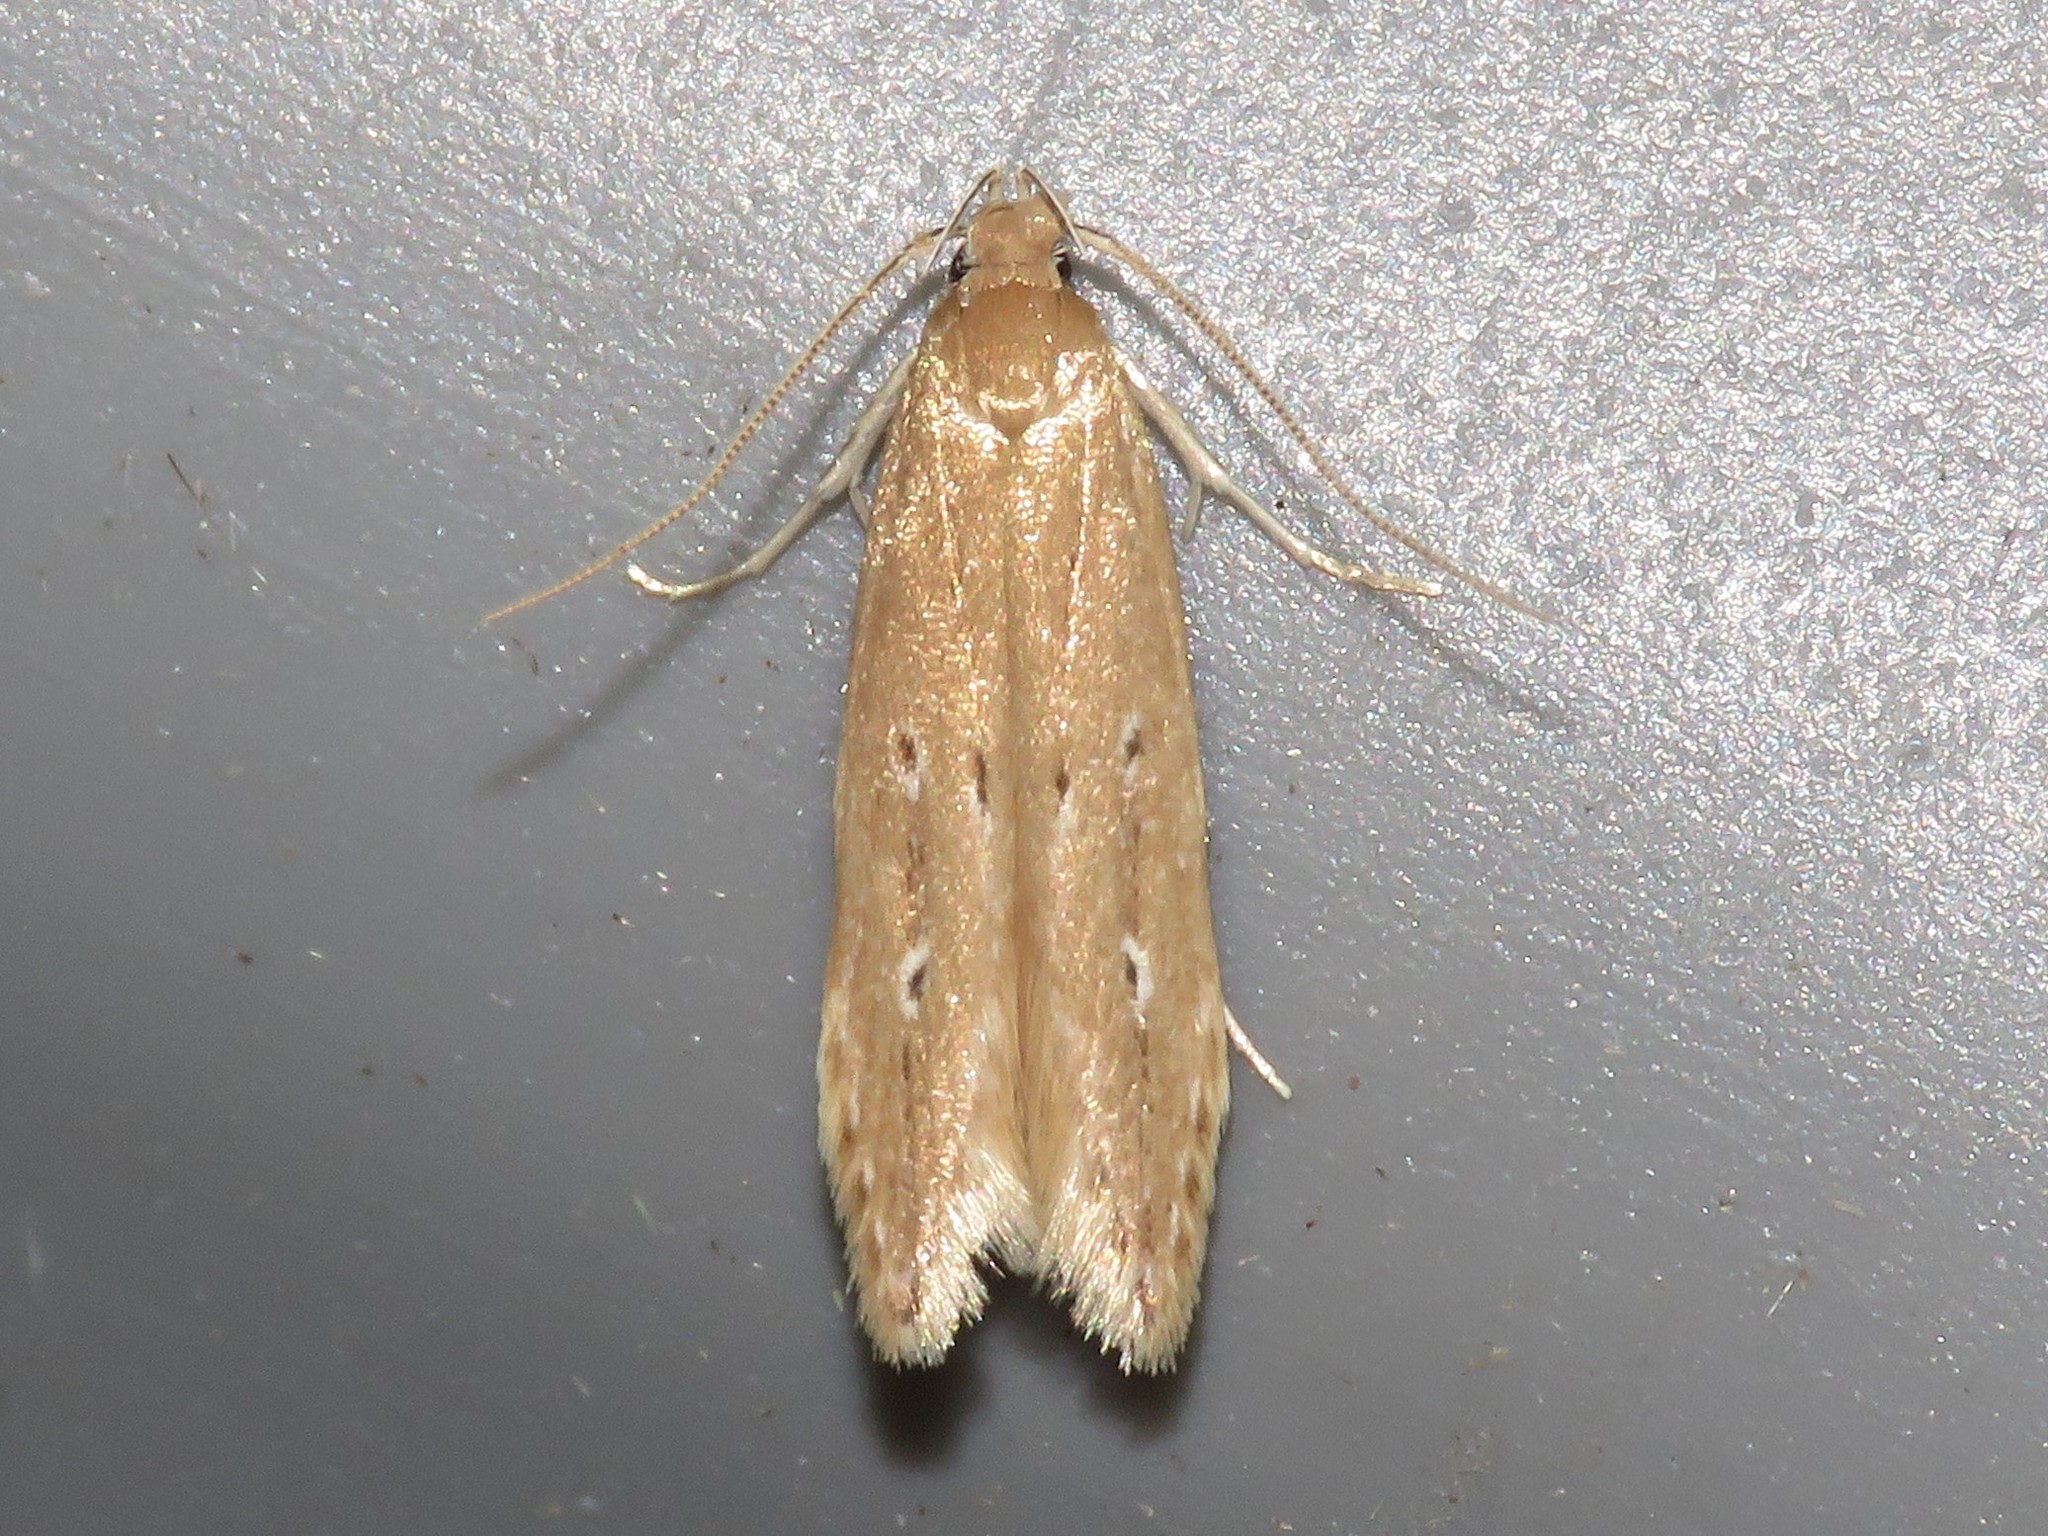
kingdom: Animalia
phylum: Arthropoda
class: Insecta
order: Lepidoptera
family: Cosmopterigidae
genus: Limnaecia
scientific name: Limnaecia phragmitella
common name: Bulrush cosmet
